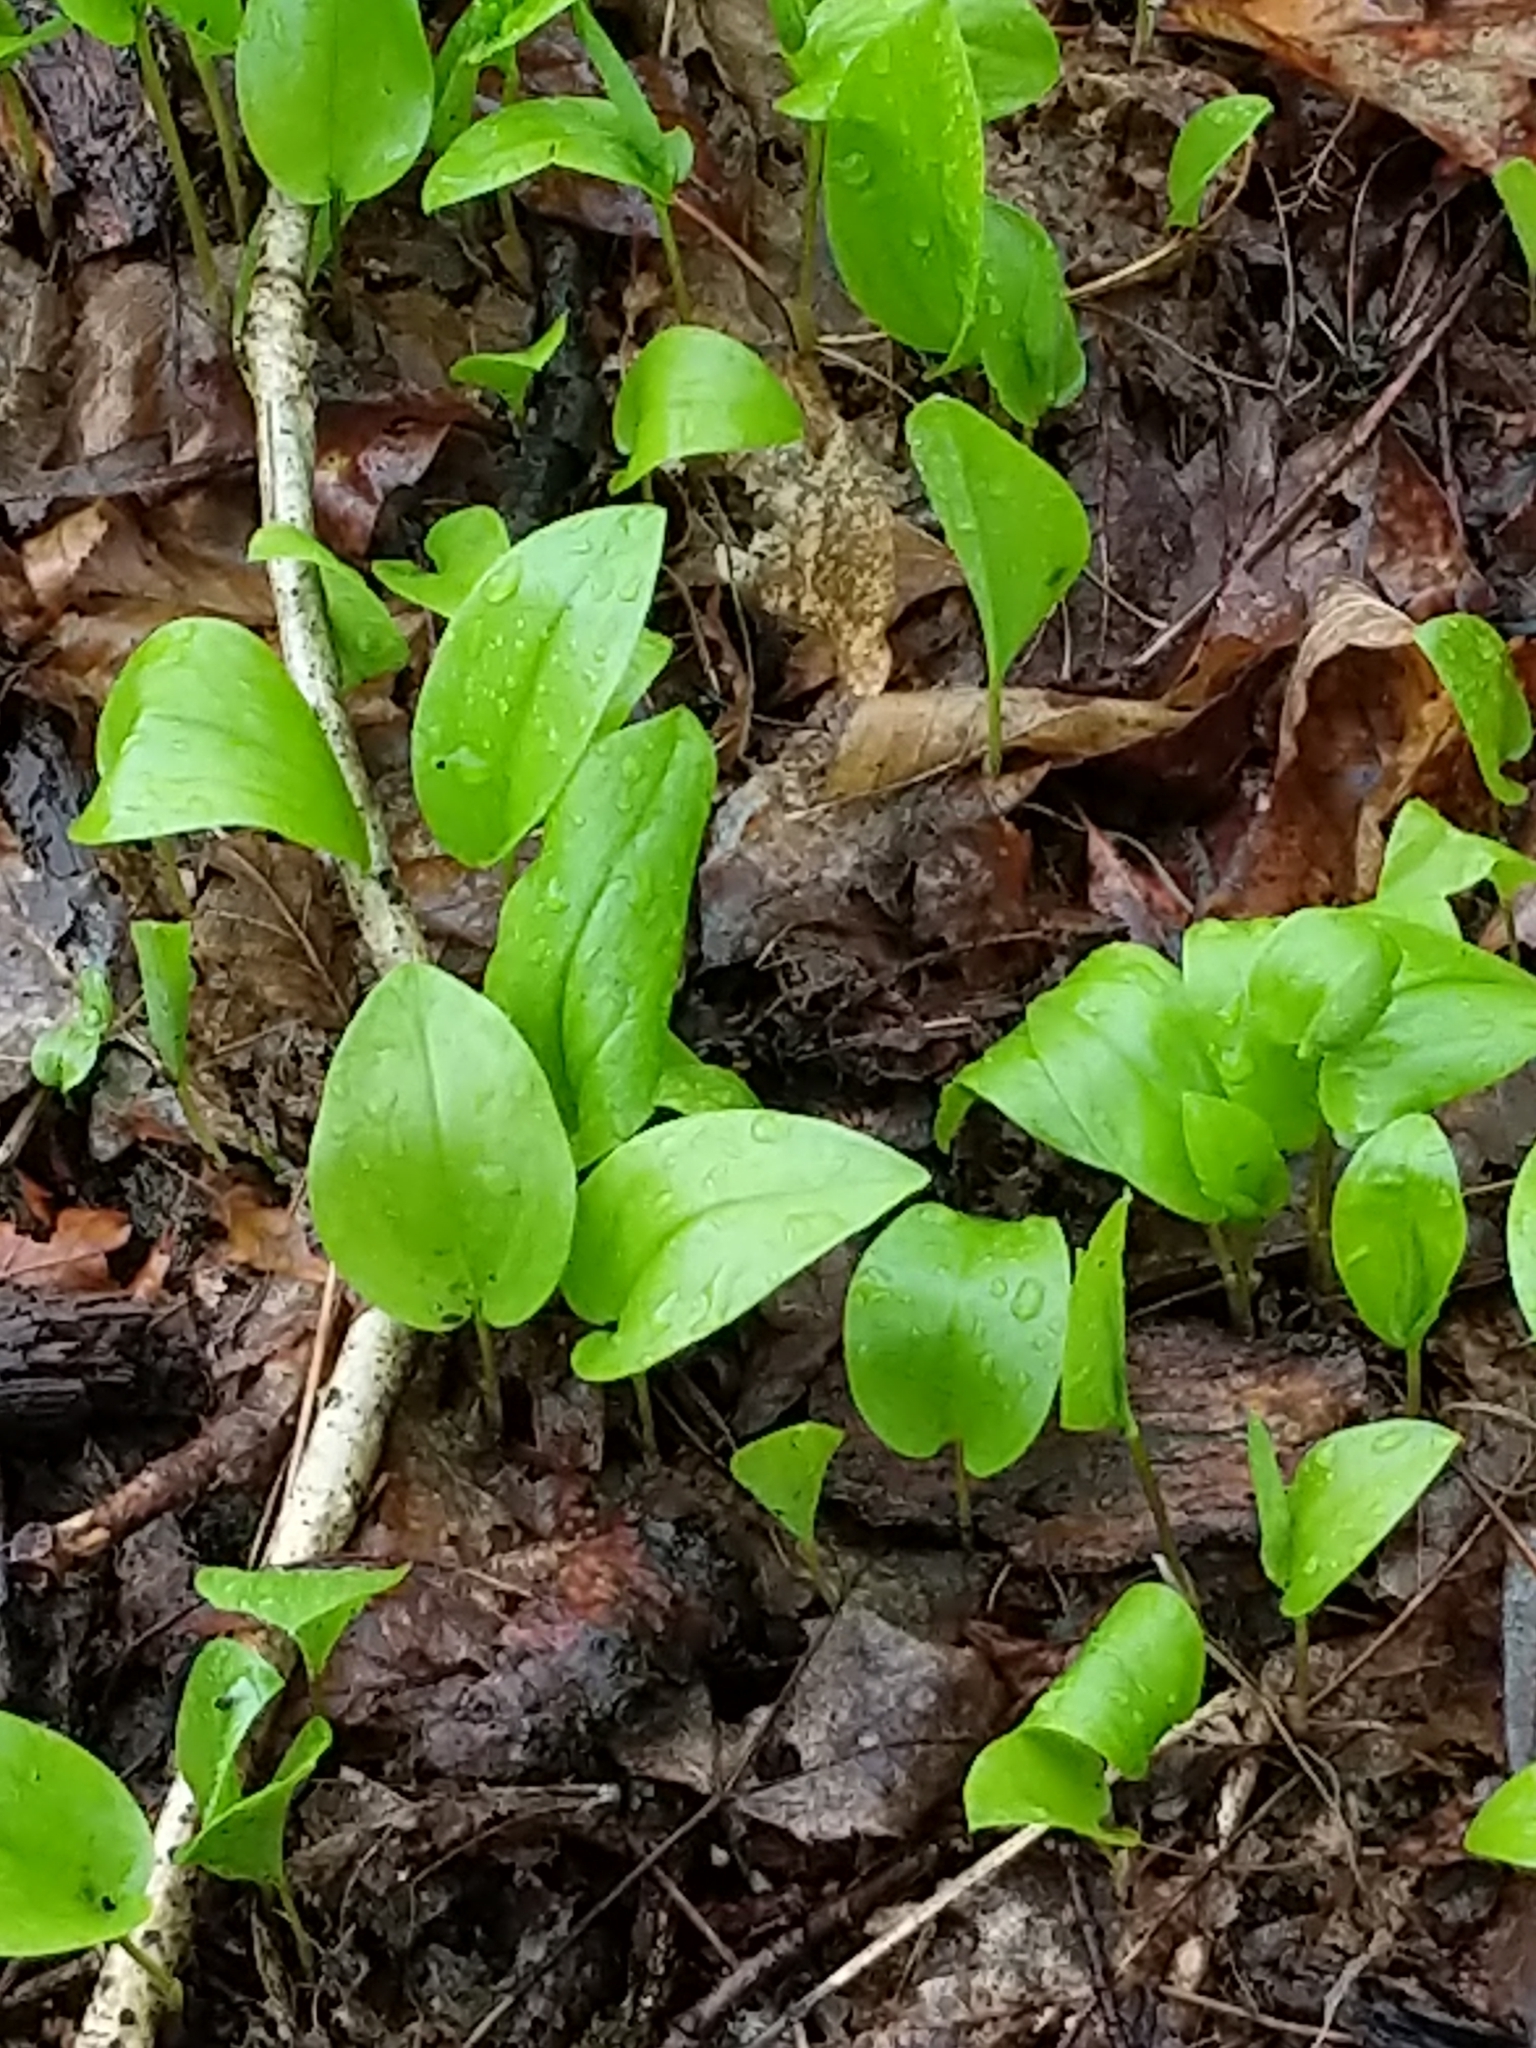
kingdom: Plantae
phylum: Tracheophyta
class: Liliopsida
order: Asparagales
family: Asparagaceae
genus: Maianthemum
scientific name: Maianthemum canadense
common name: False lily-of-the-valley
